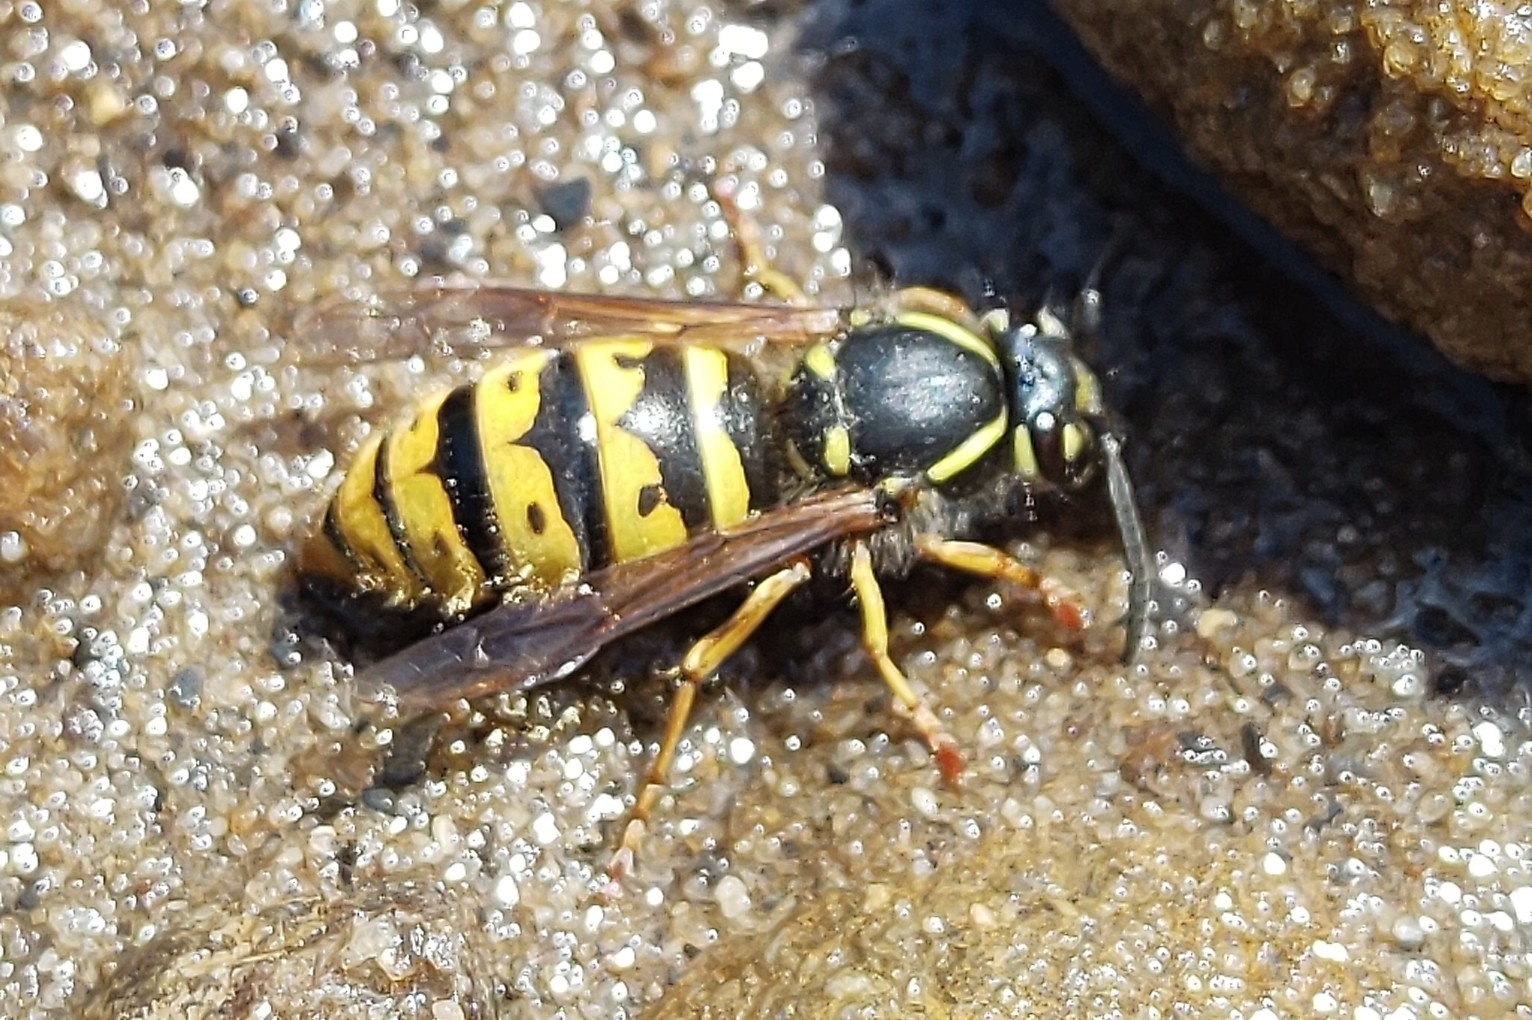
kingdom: Animalia
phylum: Arthropoda
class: Insecta
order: Hymenoptera
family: Vespidae
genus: Vespula
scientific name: Vespula vulgaris
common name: Common wasp
